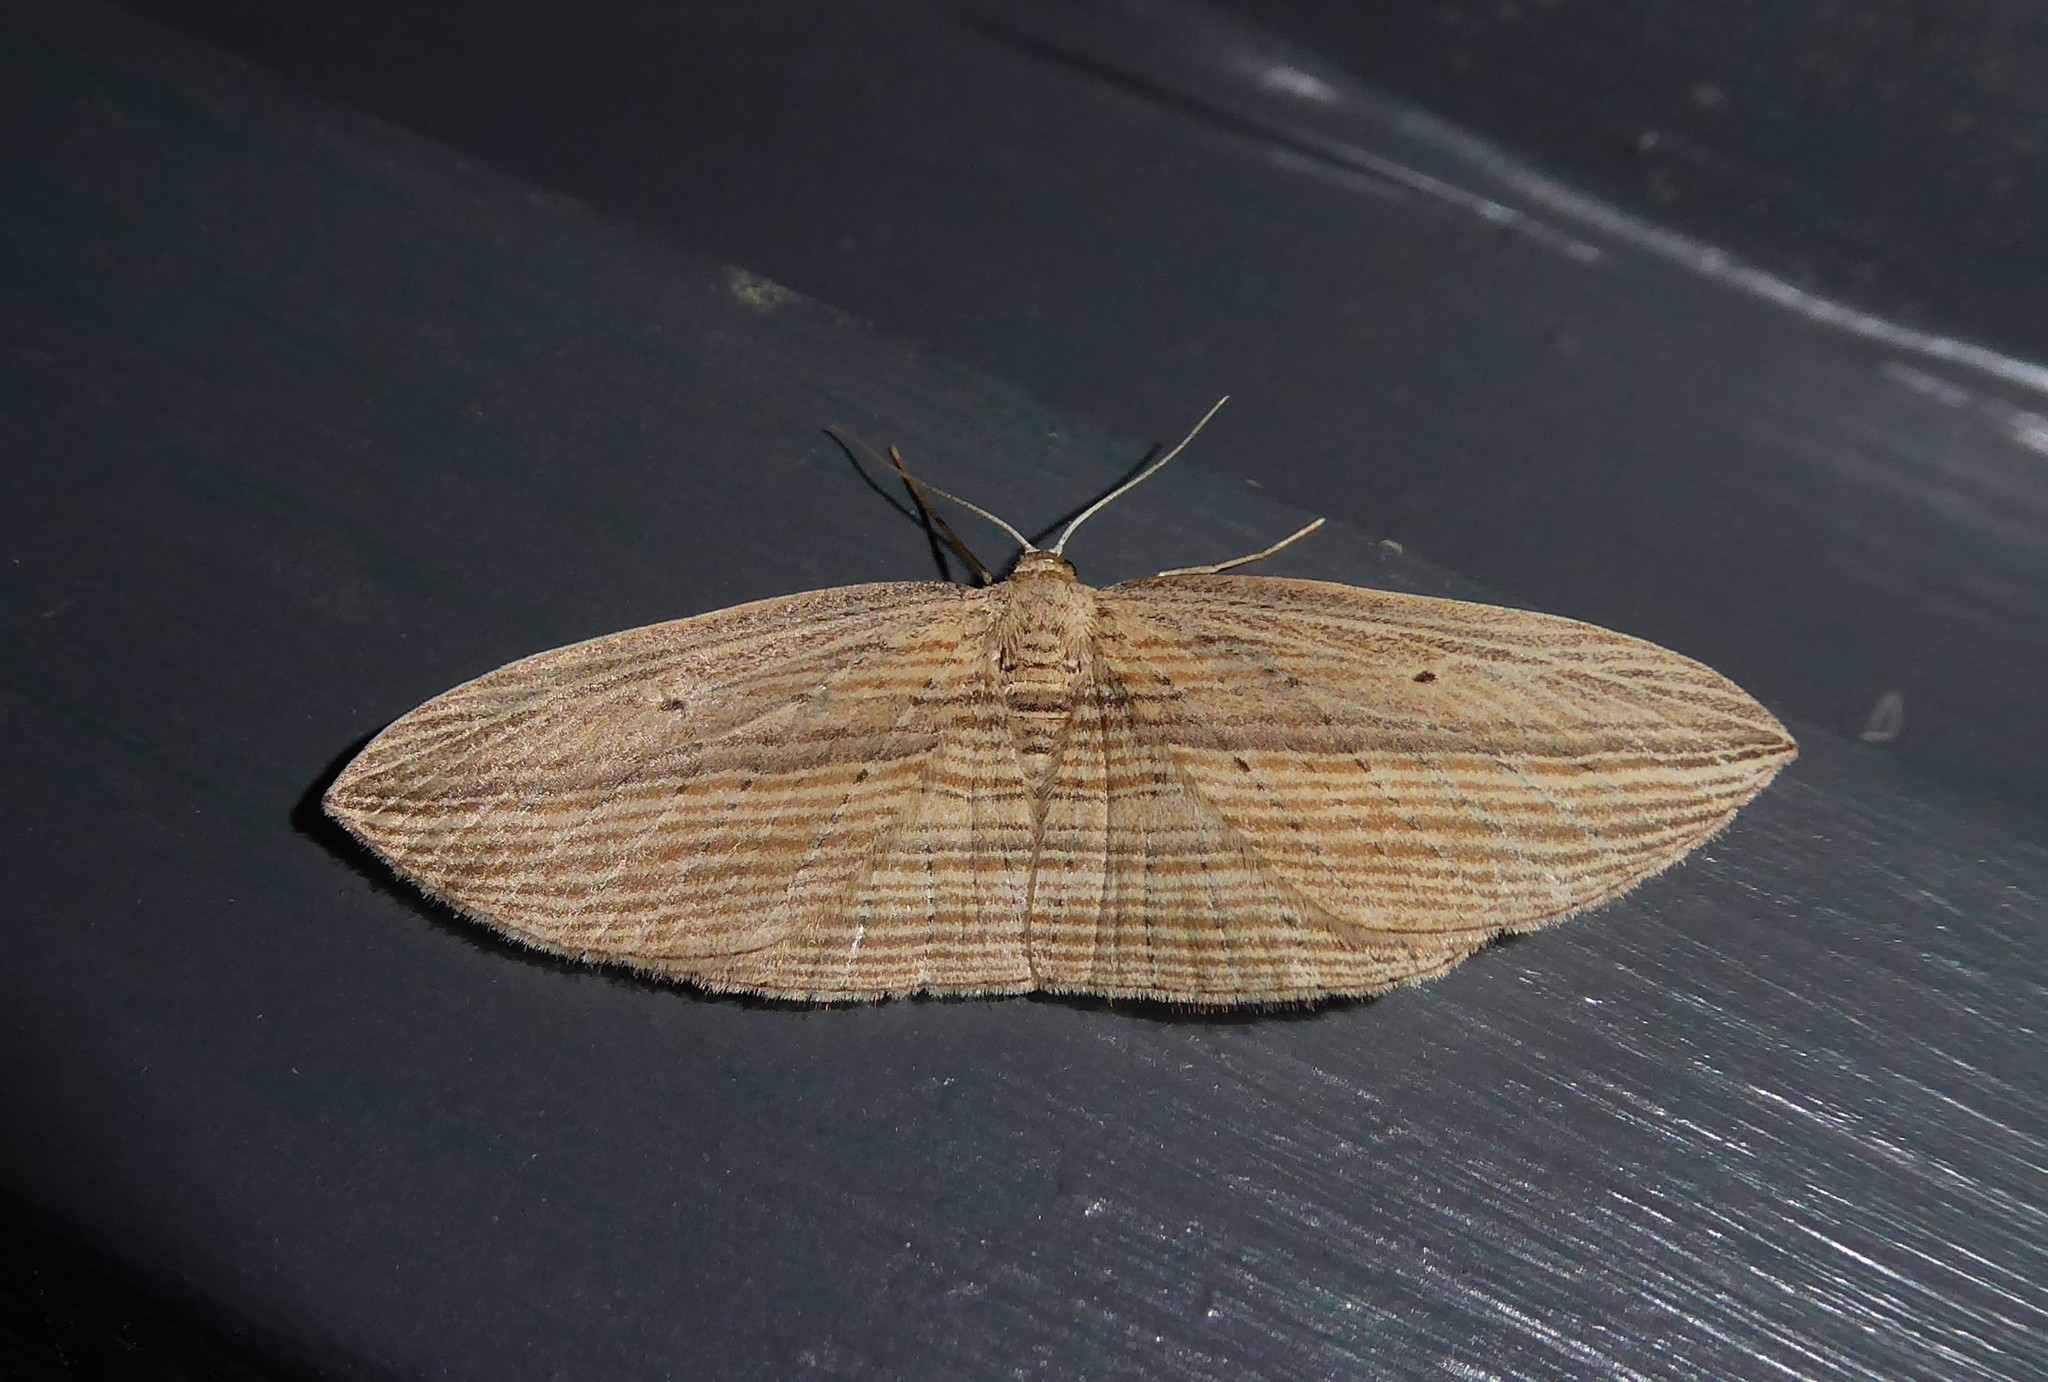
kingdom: Animalia
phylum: Arthropoda
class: Insecta
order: Lepidoptera
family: Geometridae
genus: Epiphryne
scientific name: Epiphryne verriculata
